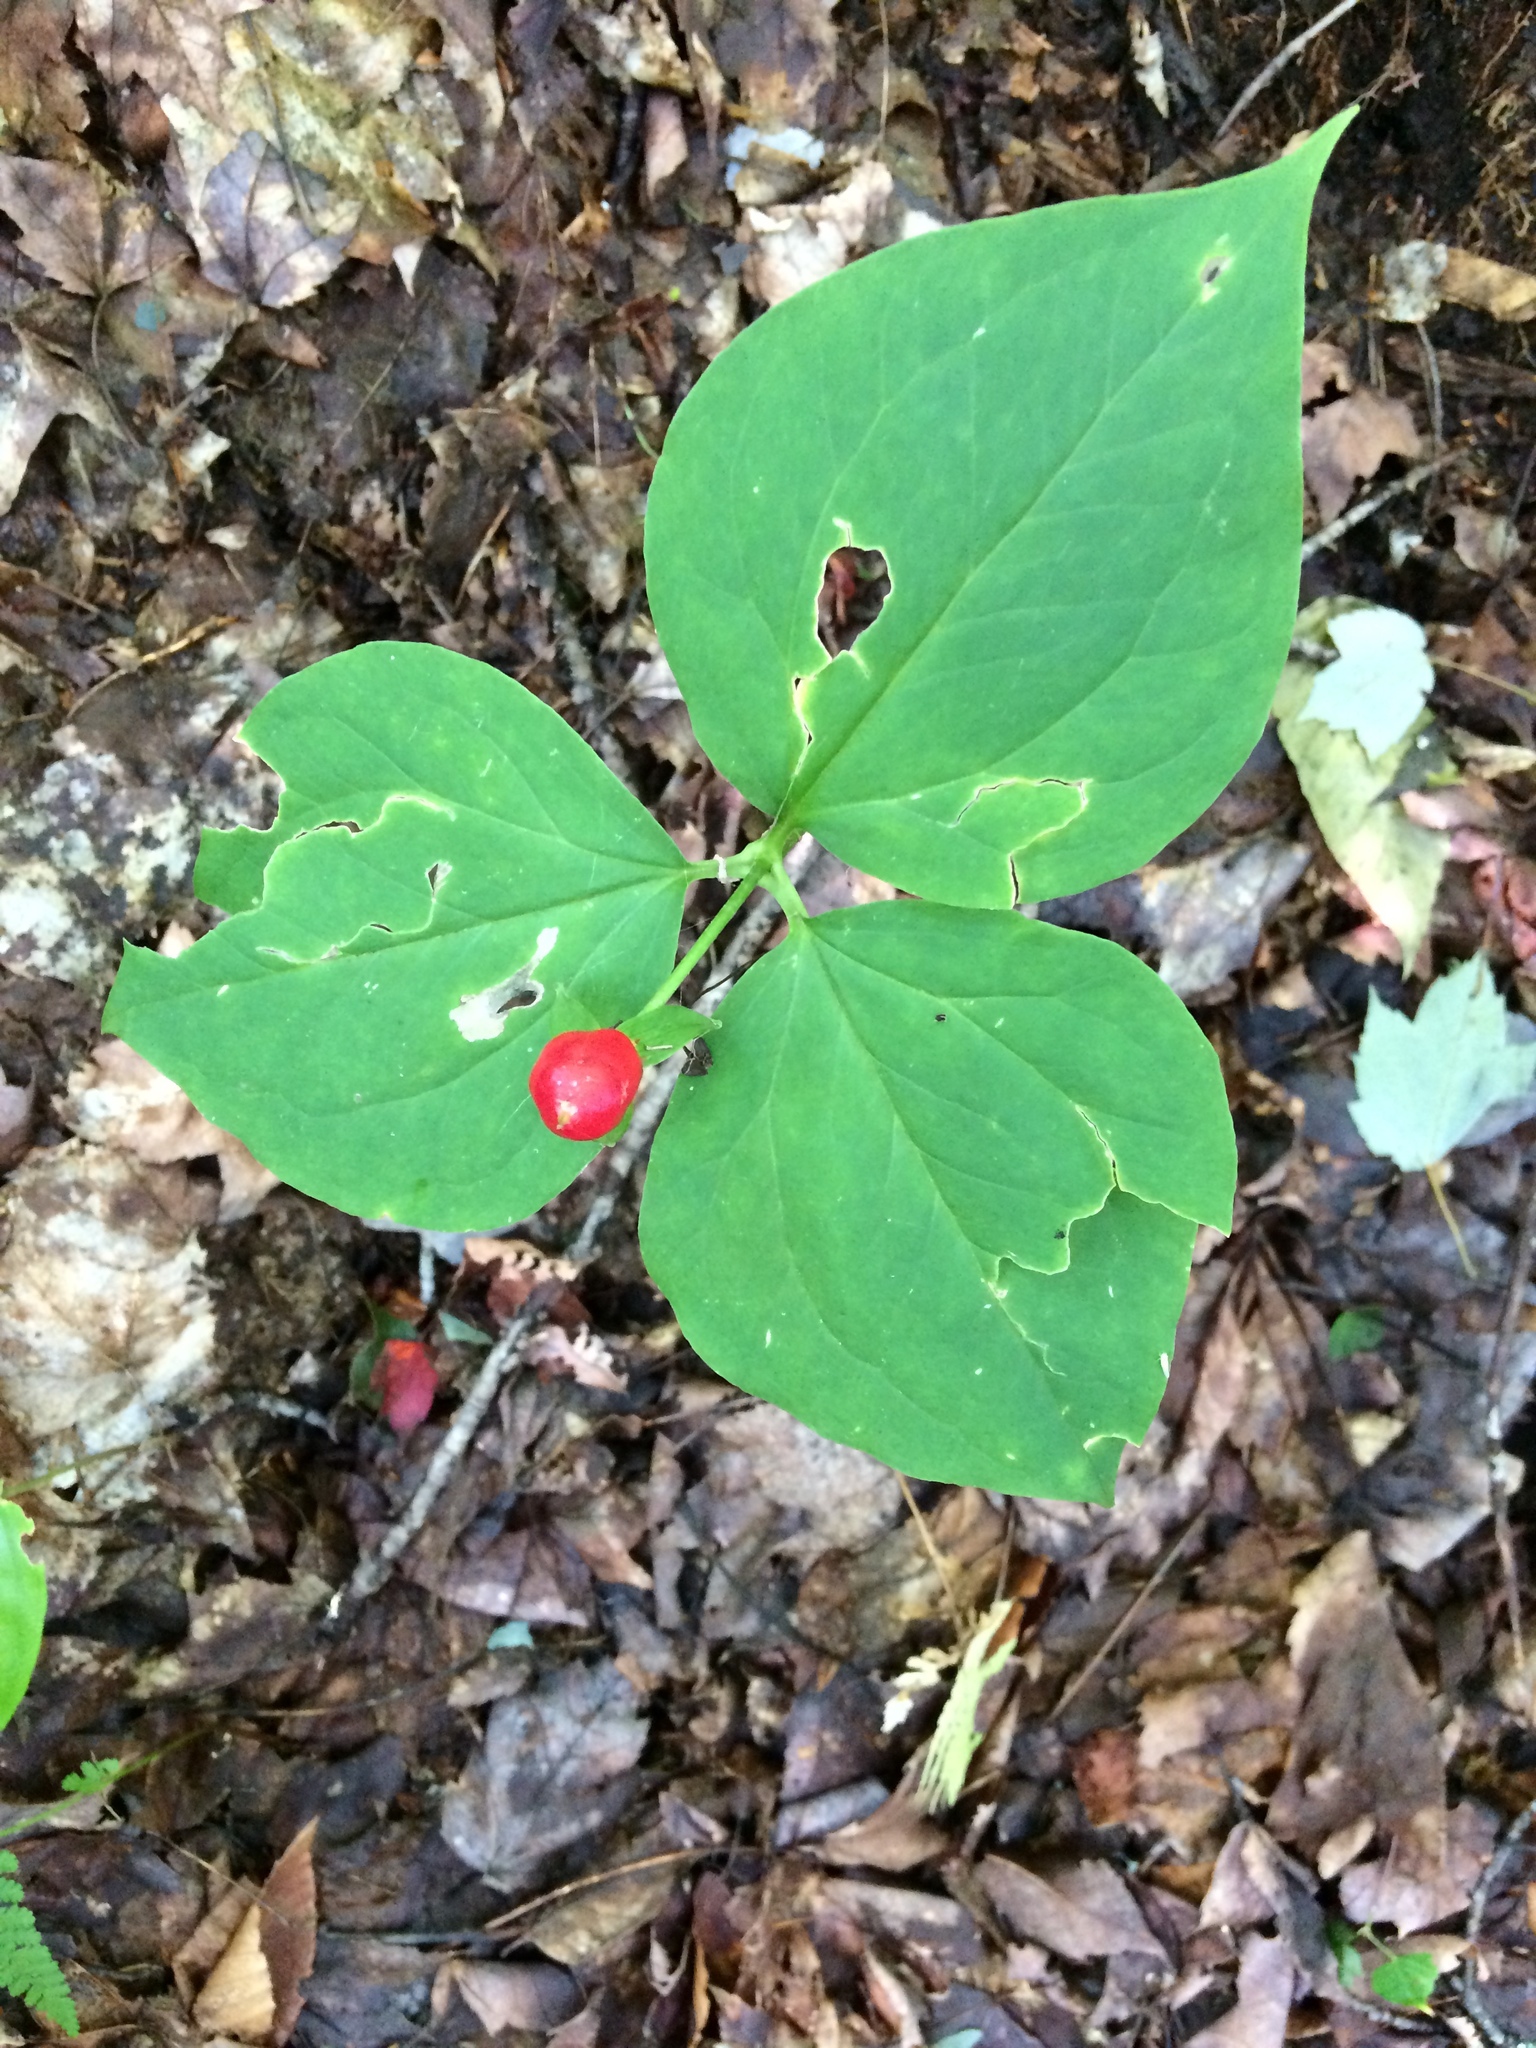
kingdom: Plantae
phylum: Tracheophyta
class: Liliopsida
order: Liliales
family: Melanthiaceae
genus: Trillium
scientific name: Trillium undulatum
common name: Paint trillium
